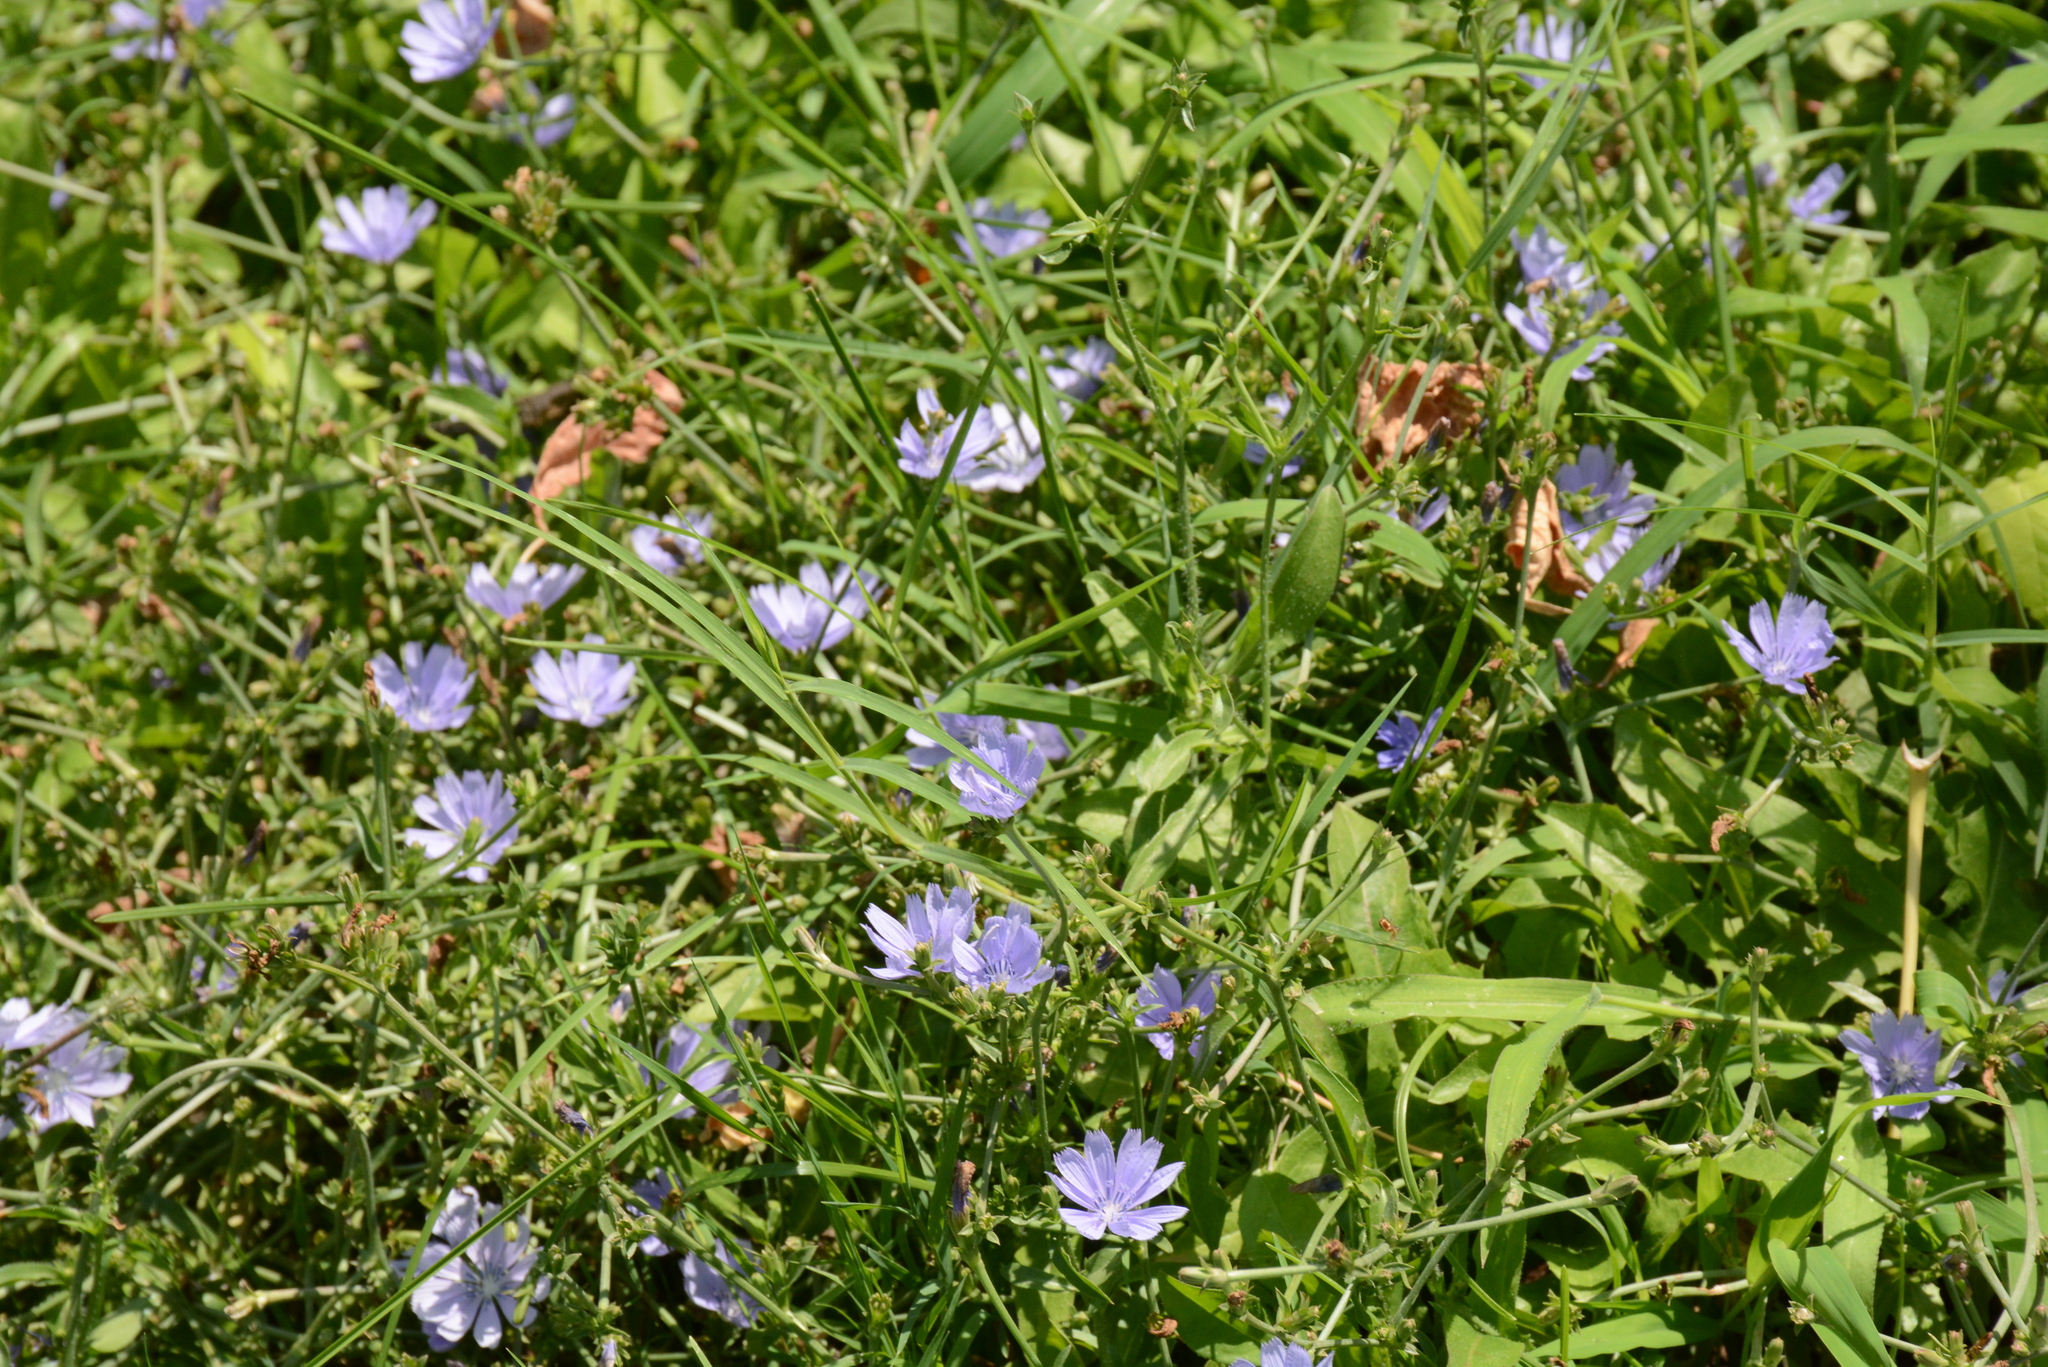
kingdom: Plantae
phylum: Tracheophyta
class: Magnoliopsida
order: Asterales
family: Asteraceae
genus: Cichorium
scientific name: Cichorium intybus
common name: Chicory
